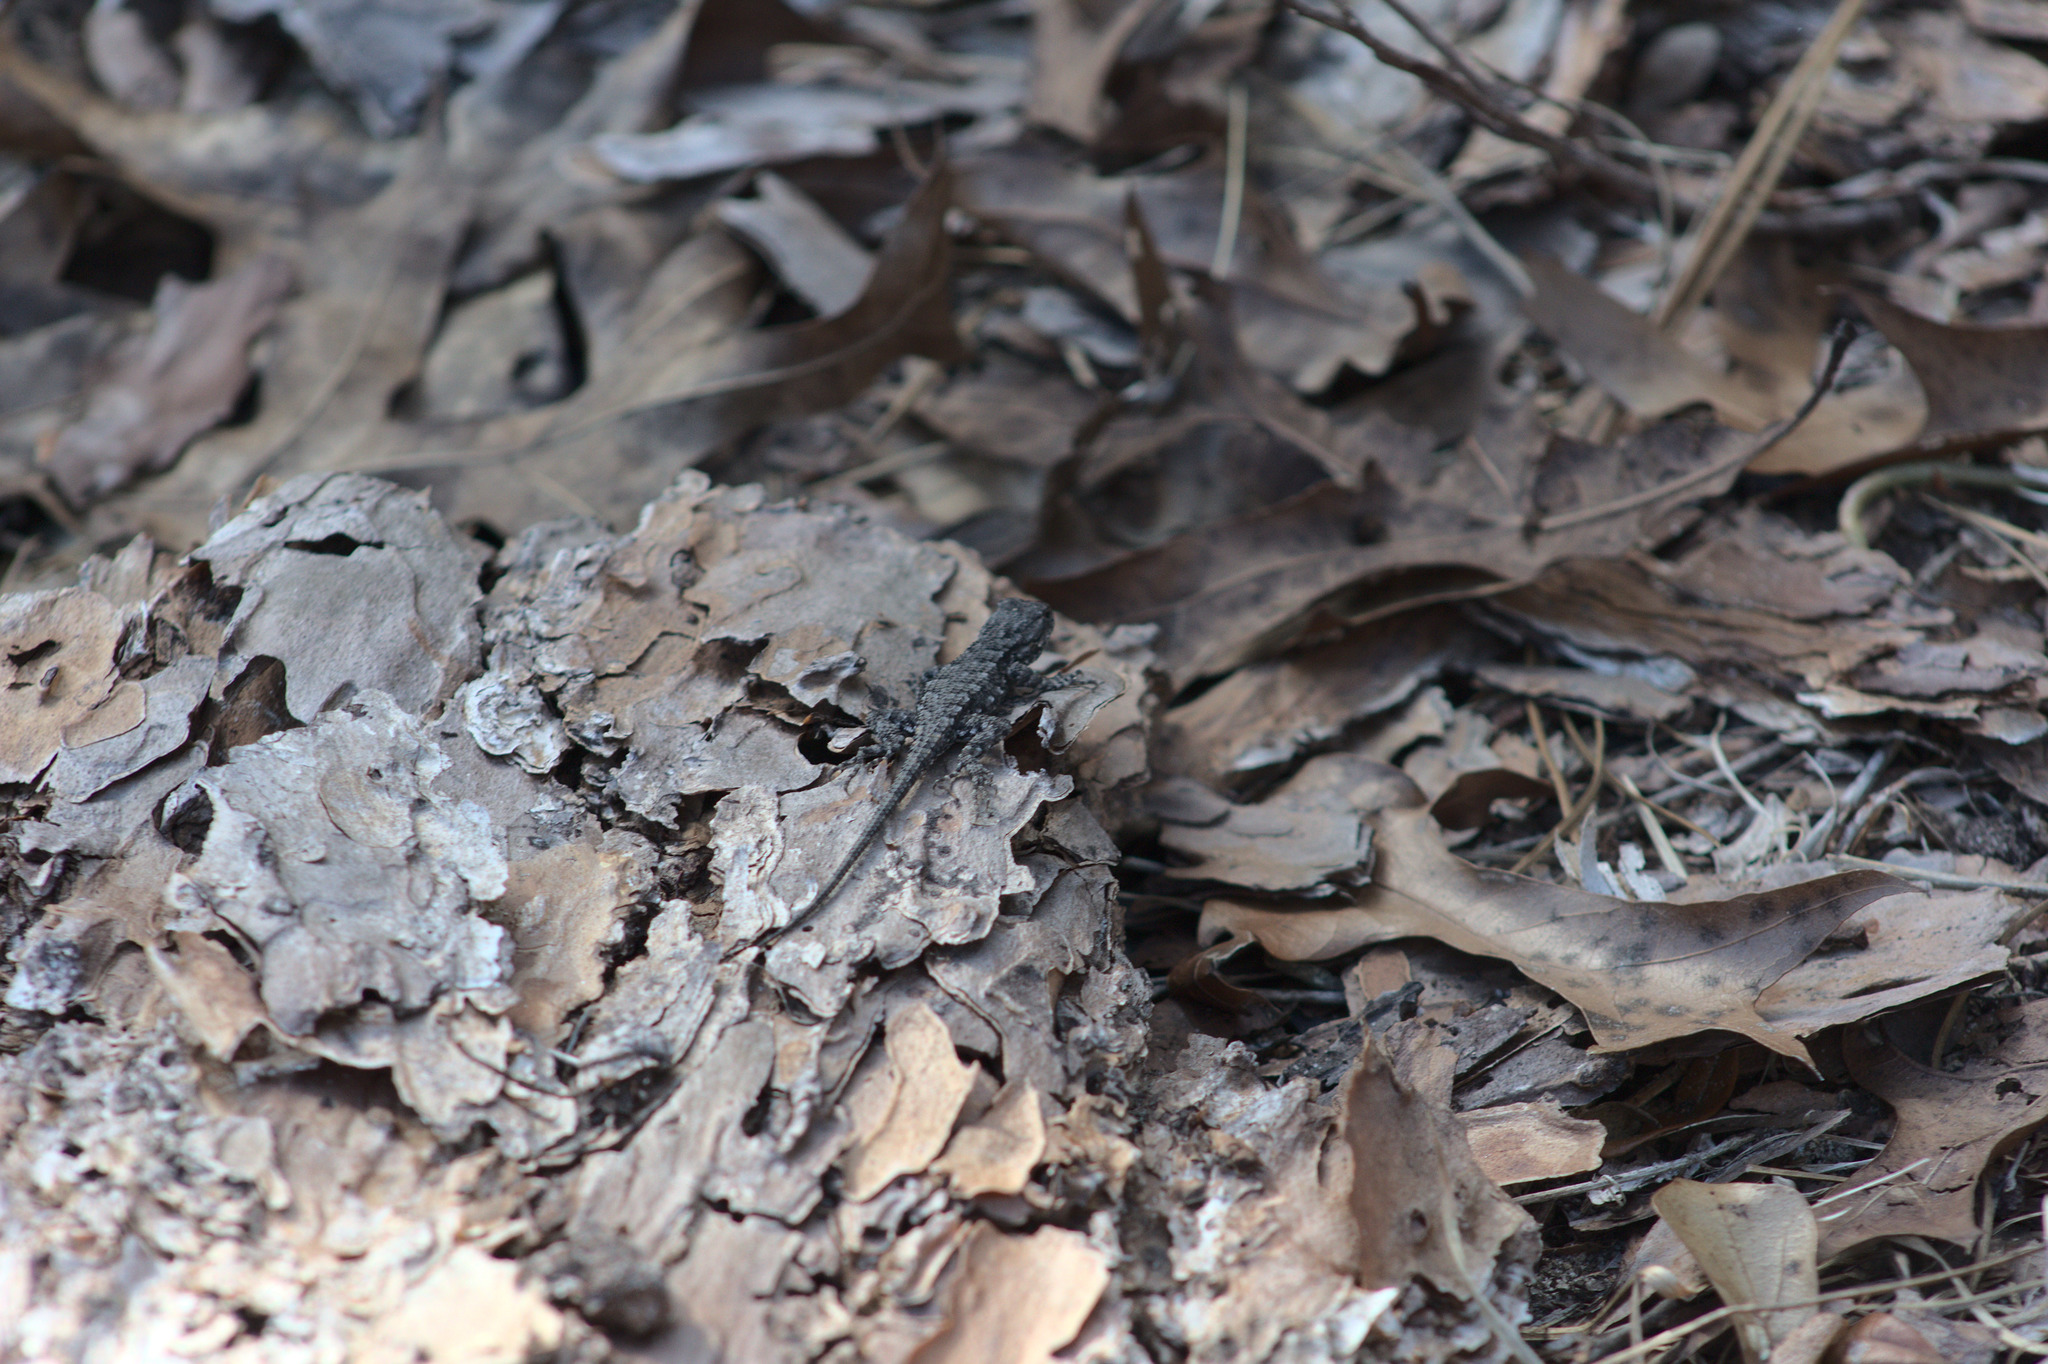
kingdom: Animalia
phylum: Chordata
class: Squamata
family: Phrynosomatidae
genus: Sceloporus
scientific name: Sceloporus undulatus
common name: Eastern fence lizard
